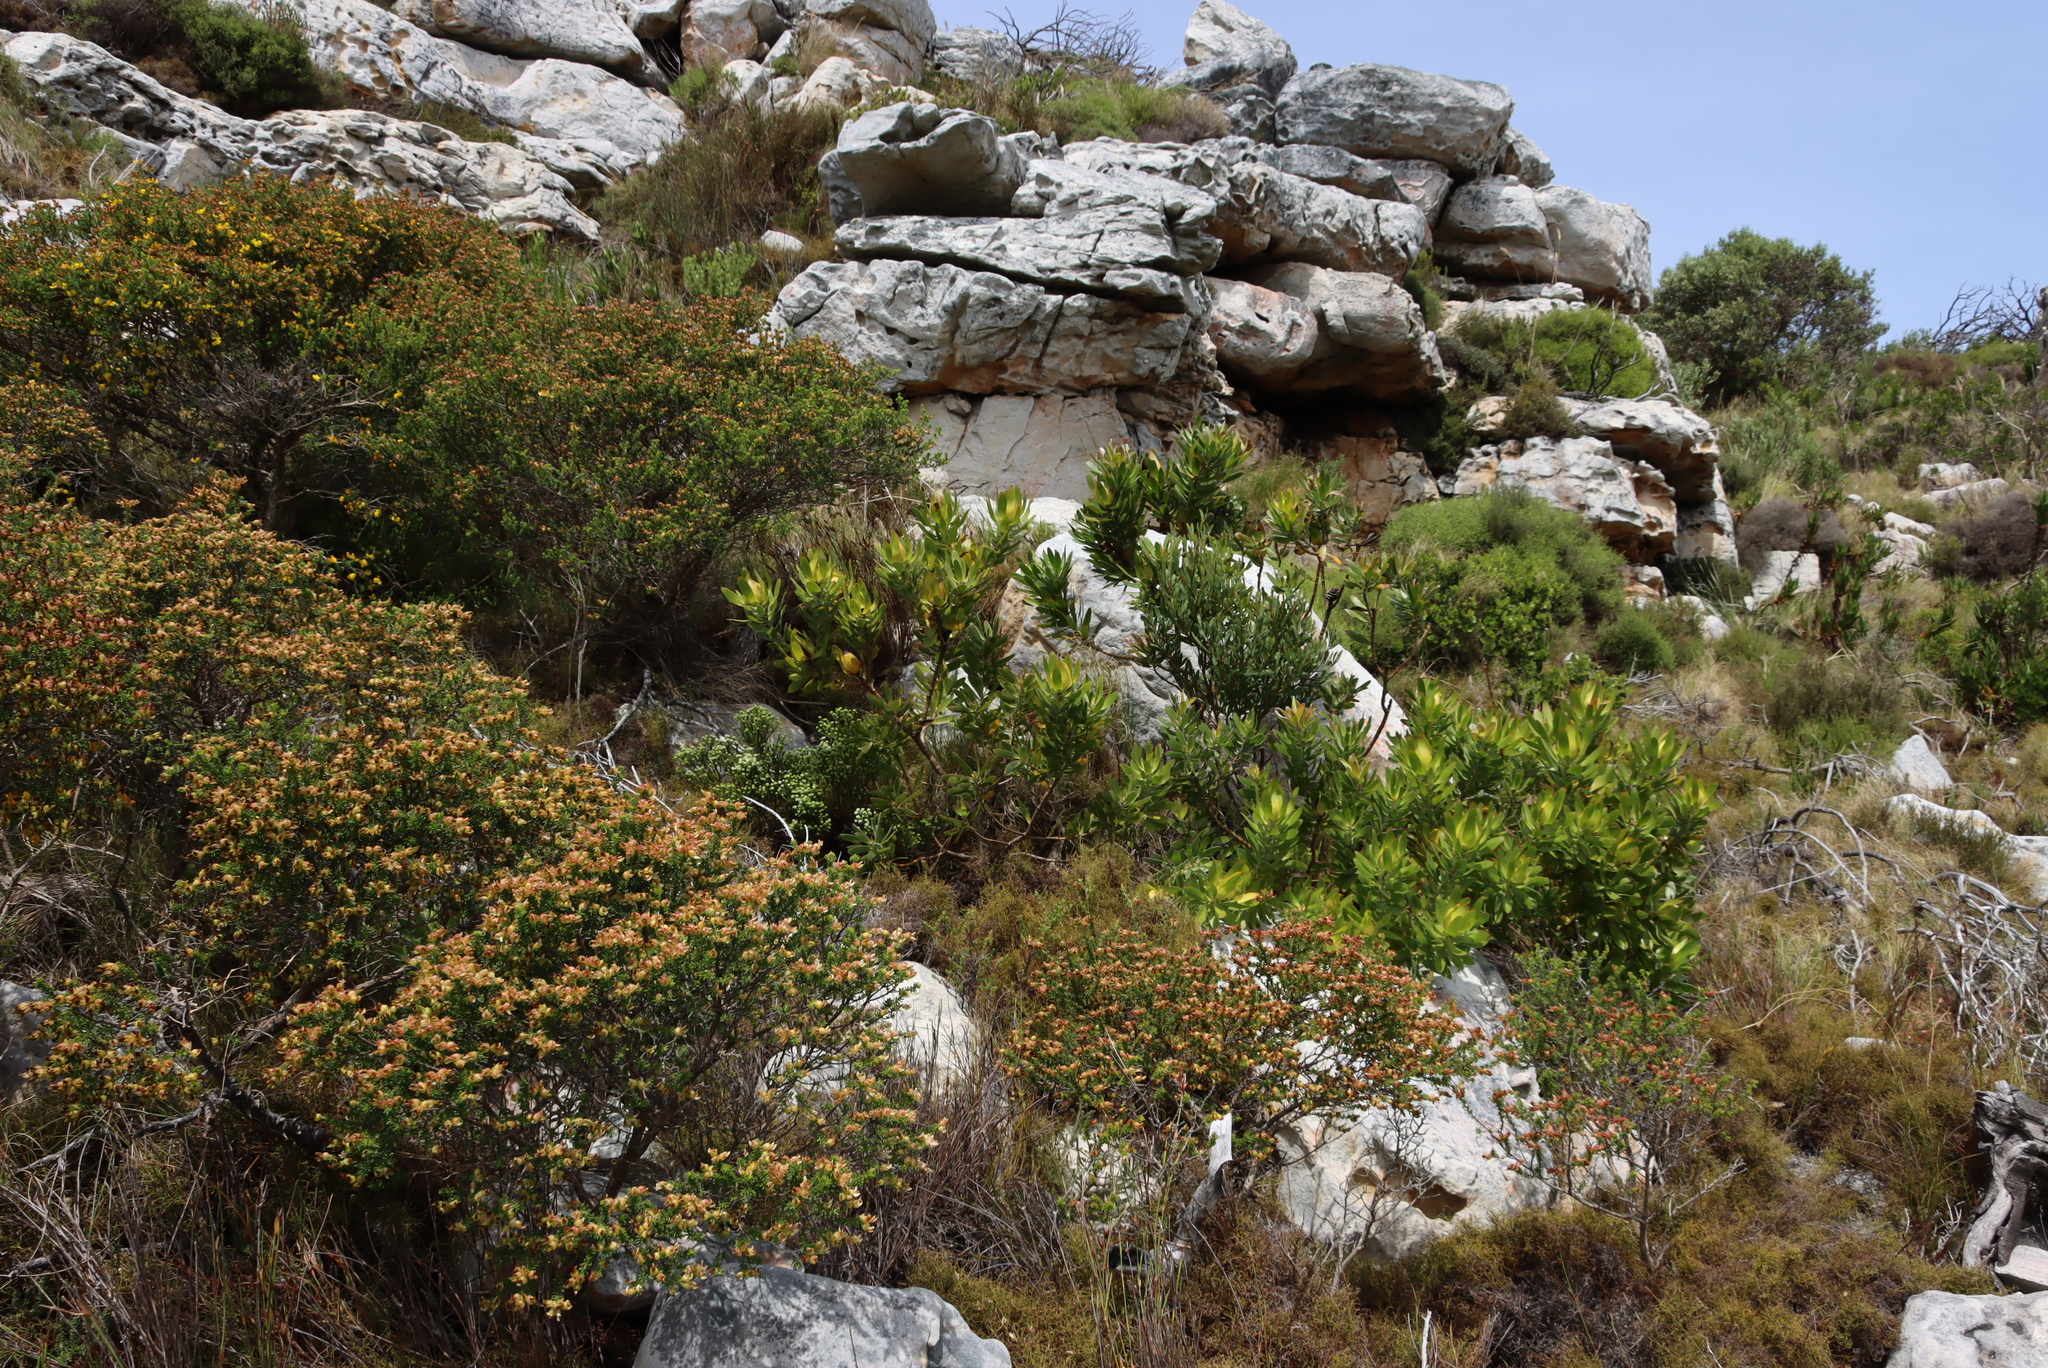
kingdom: Plantae
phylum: Tracheophyta
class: Magnoliopsida
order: Proteales
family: Proteaceae
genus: Leucadendron
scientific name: Leucadendron laureolum
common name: Golden sunshinebush
